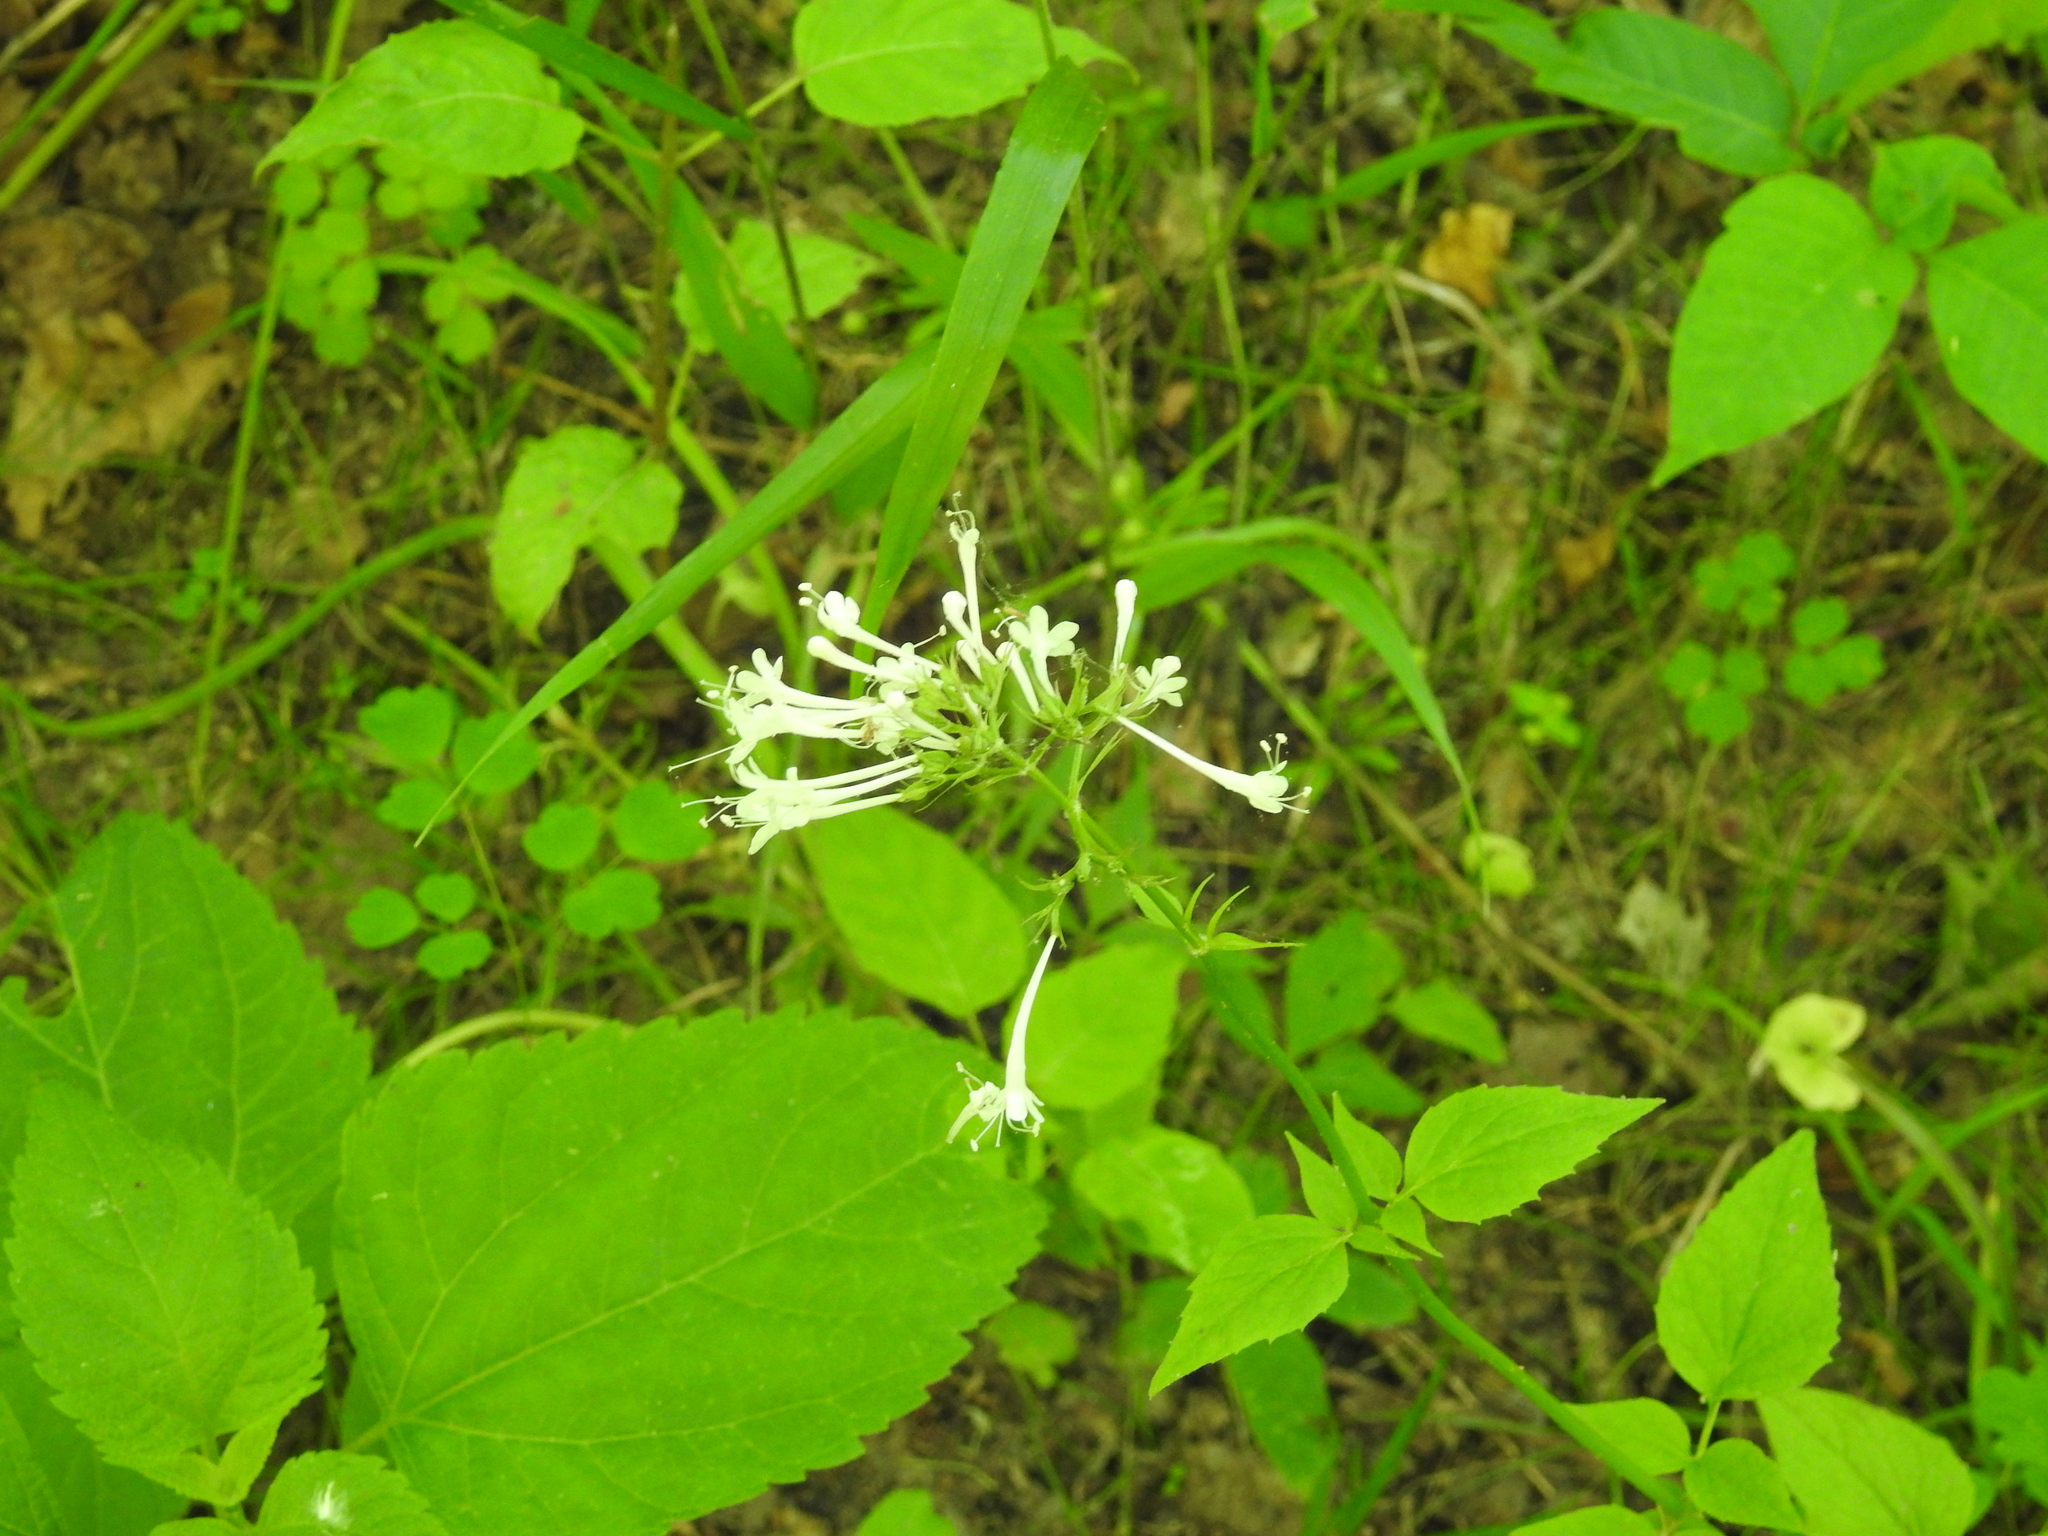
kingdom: Plantae
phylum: Tracheophyta
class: Magnoliopsida
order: Dipsacales
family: Caprifoliaceae
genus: Valeriana
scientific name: Valeriana pauciflora
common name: Long-tube valeriana
